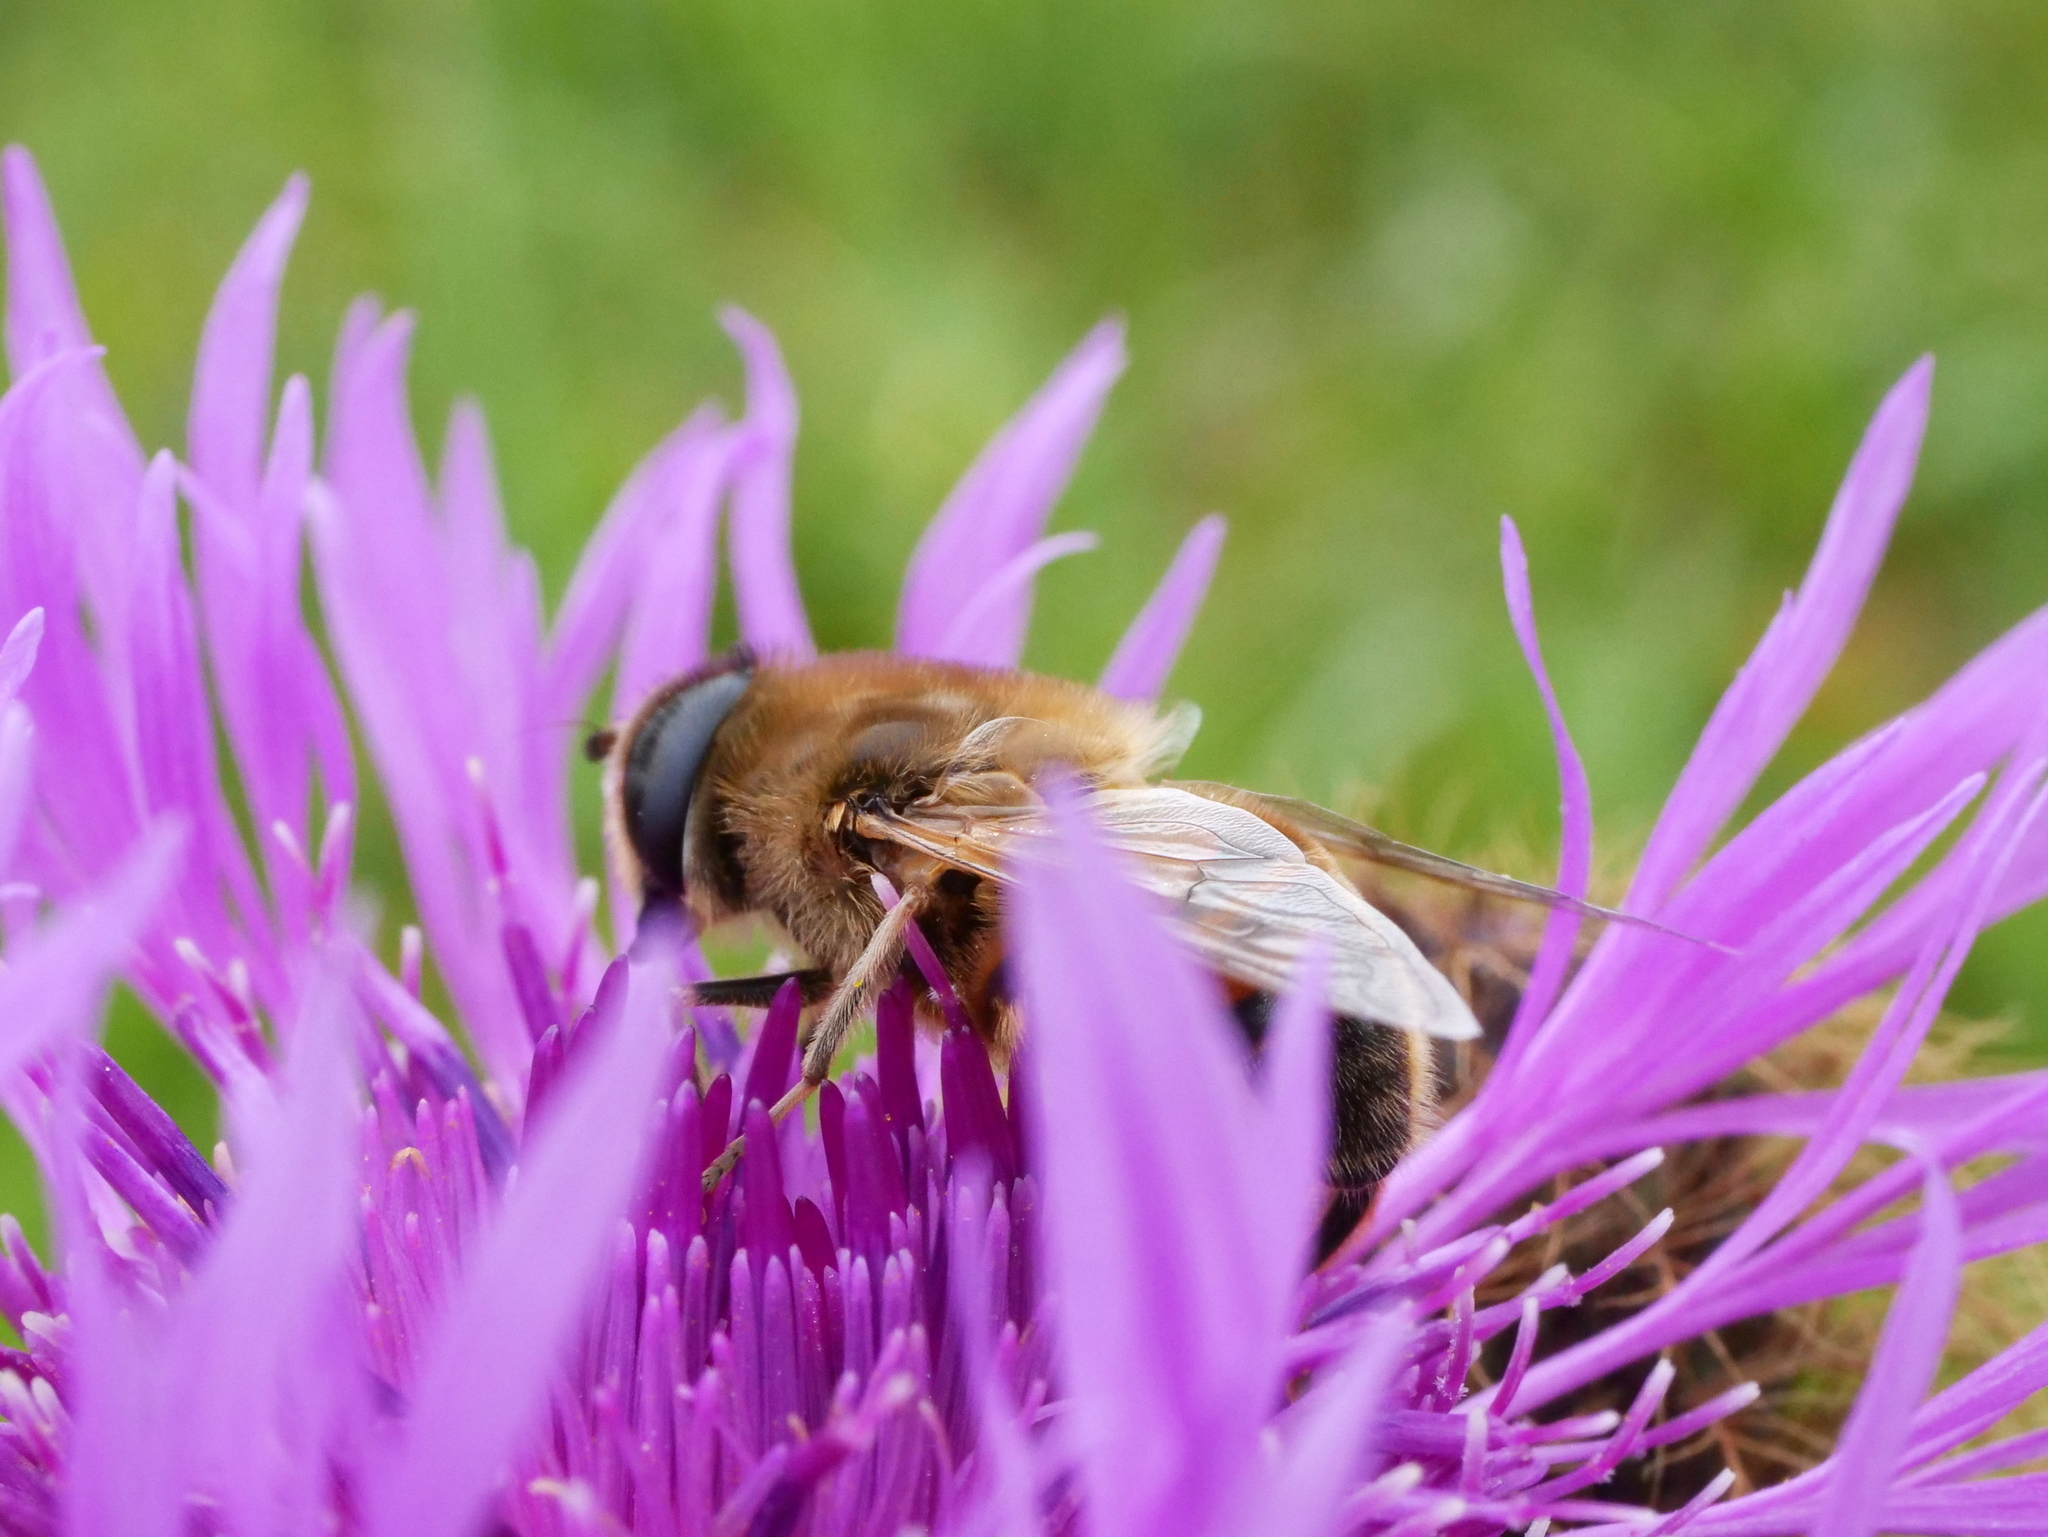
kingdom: Animalia
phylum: Arthropoda
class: Insecta
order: Diptera
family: Syrphidae
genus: Eristalis
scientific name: Eristalis tenax
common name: Drone fly
